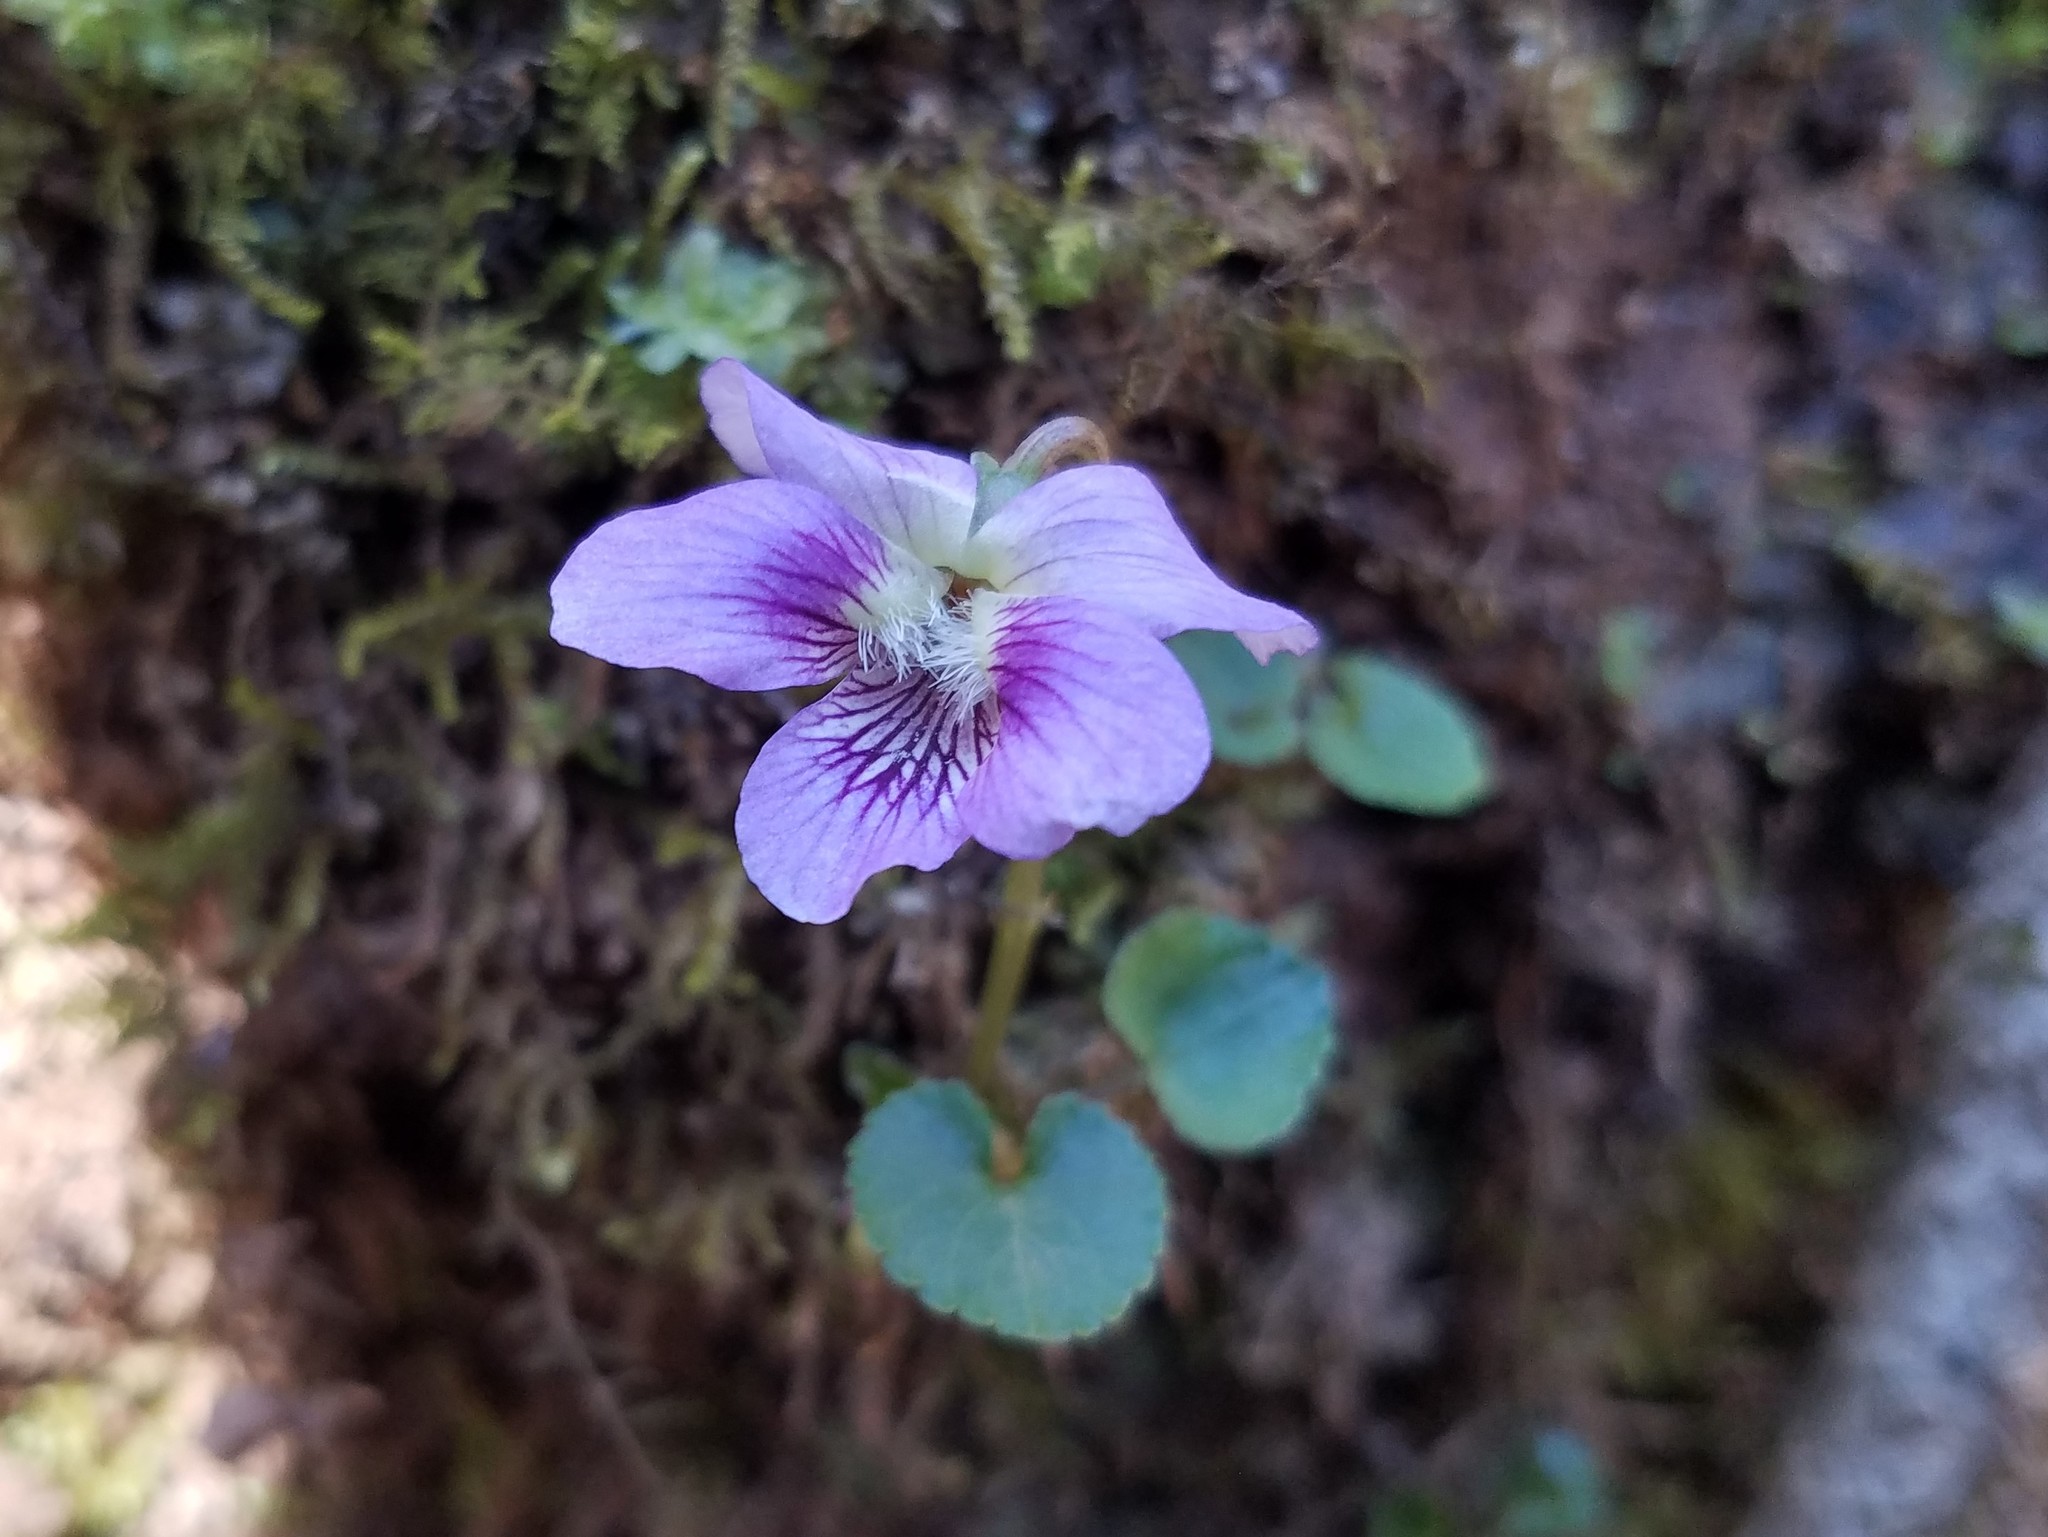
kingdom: Plantae
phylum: Tracheophyta
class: Magnoliopsida
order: Malpighiales
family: Violaceae
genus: Viola
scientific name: Viola hirsutula
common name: Southern wood violet
